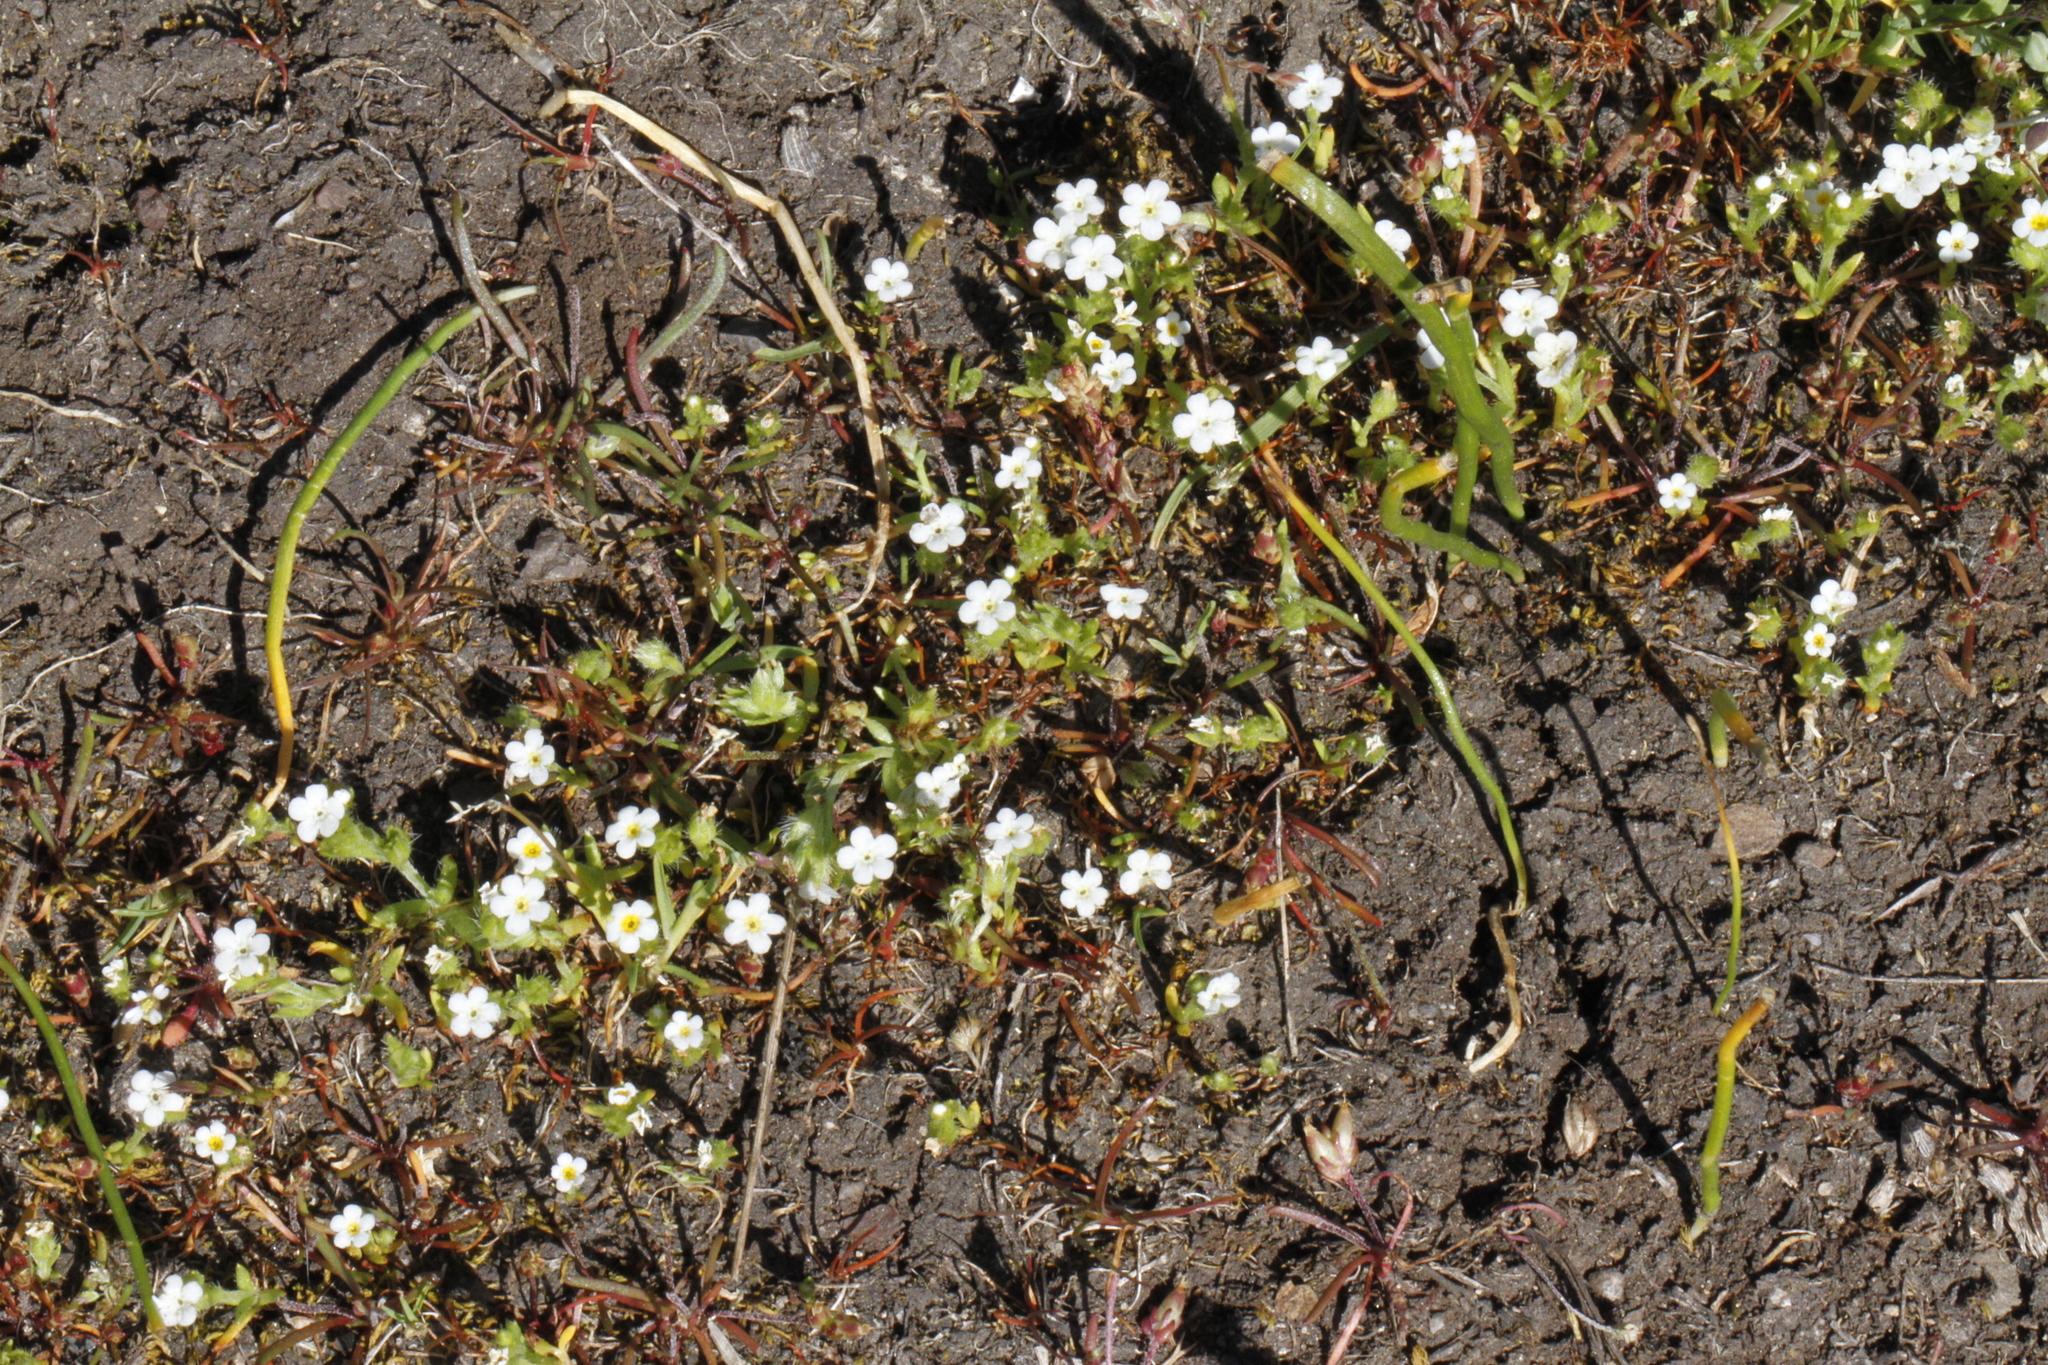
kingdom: Plantae
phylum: Tracheophyta
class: Magnoliopsida
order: Boraginales
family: Boraginaceae
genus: Plagiobothrys
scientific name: Plagiobothrys scouleri
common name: White forget-me-not
